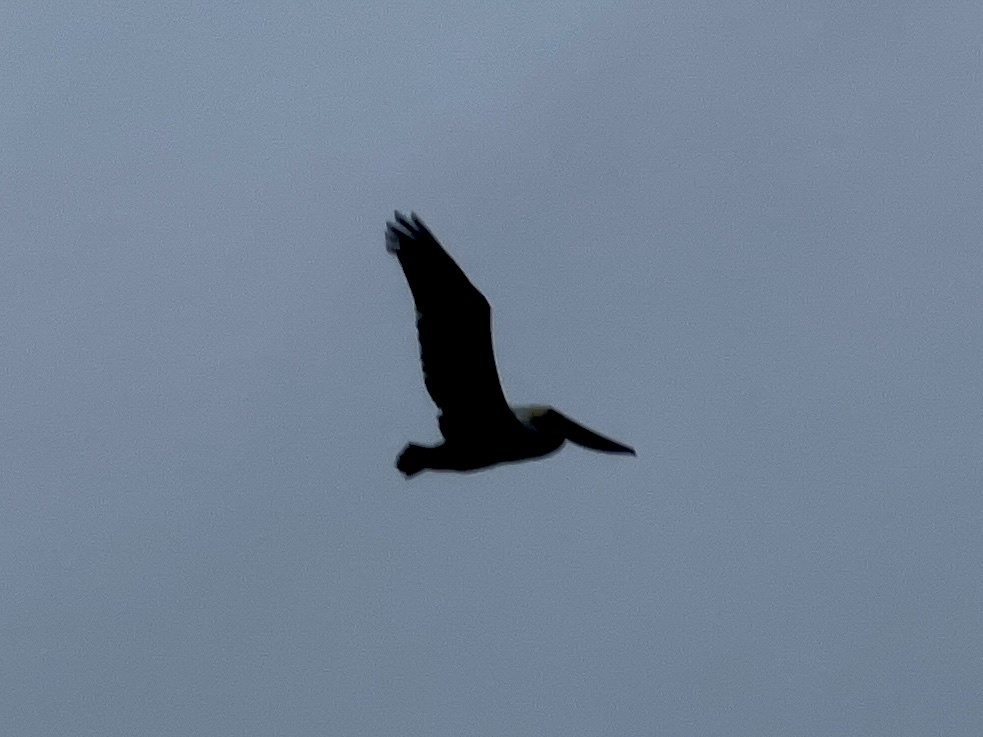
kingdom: Animalia
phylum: Chordata
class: Aves
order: Pelecaniformes
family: Pelecanidae
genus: Pelecanus
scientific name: Pelecanus occidentalis
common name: Brown pelican
